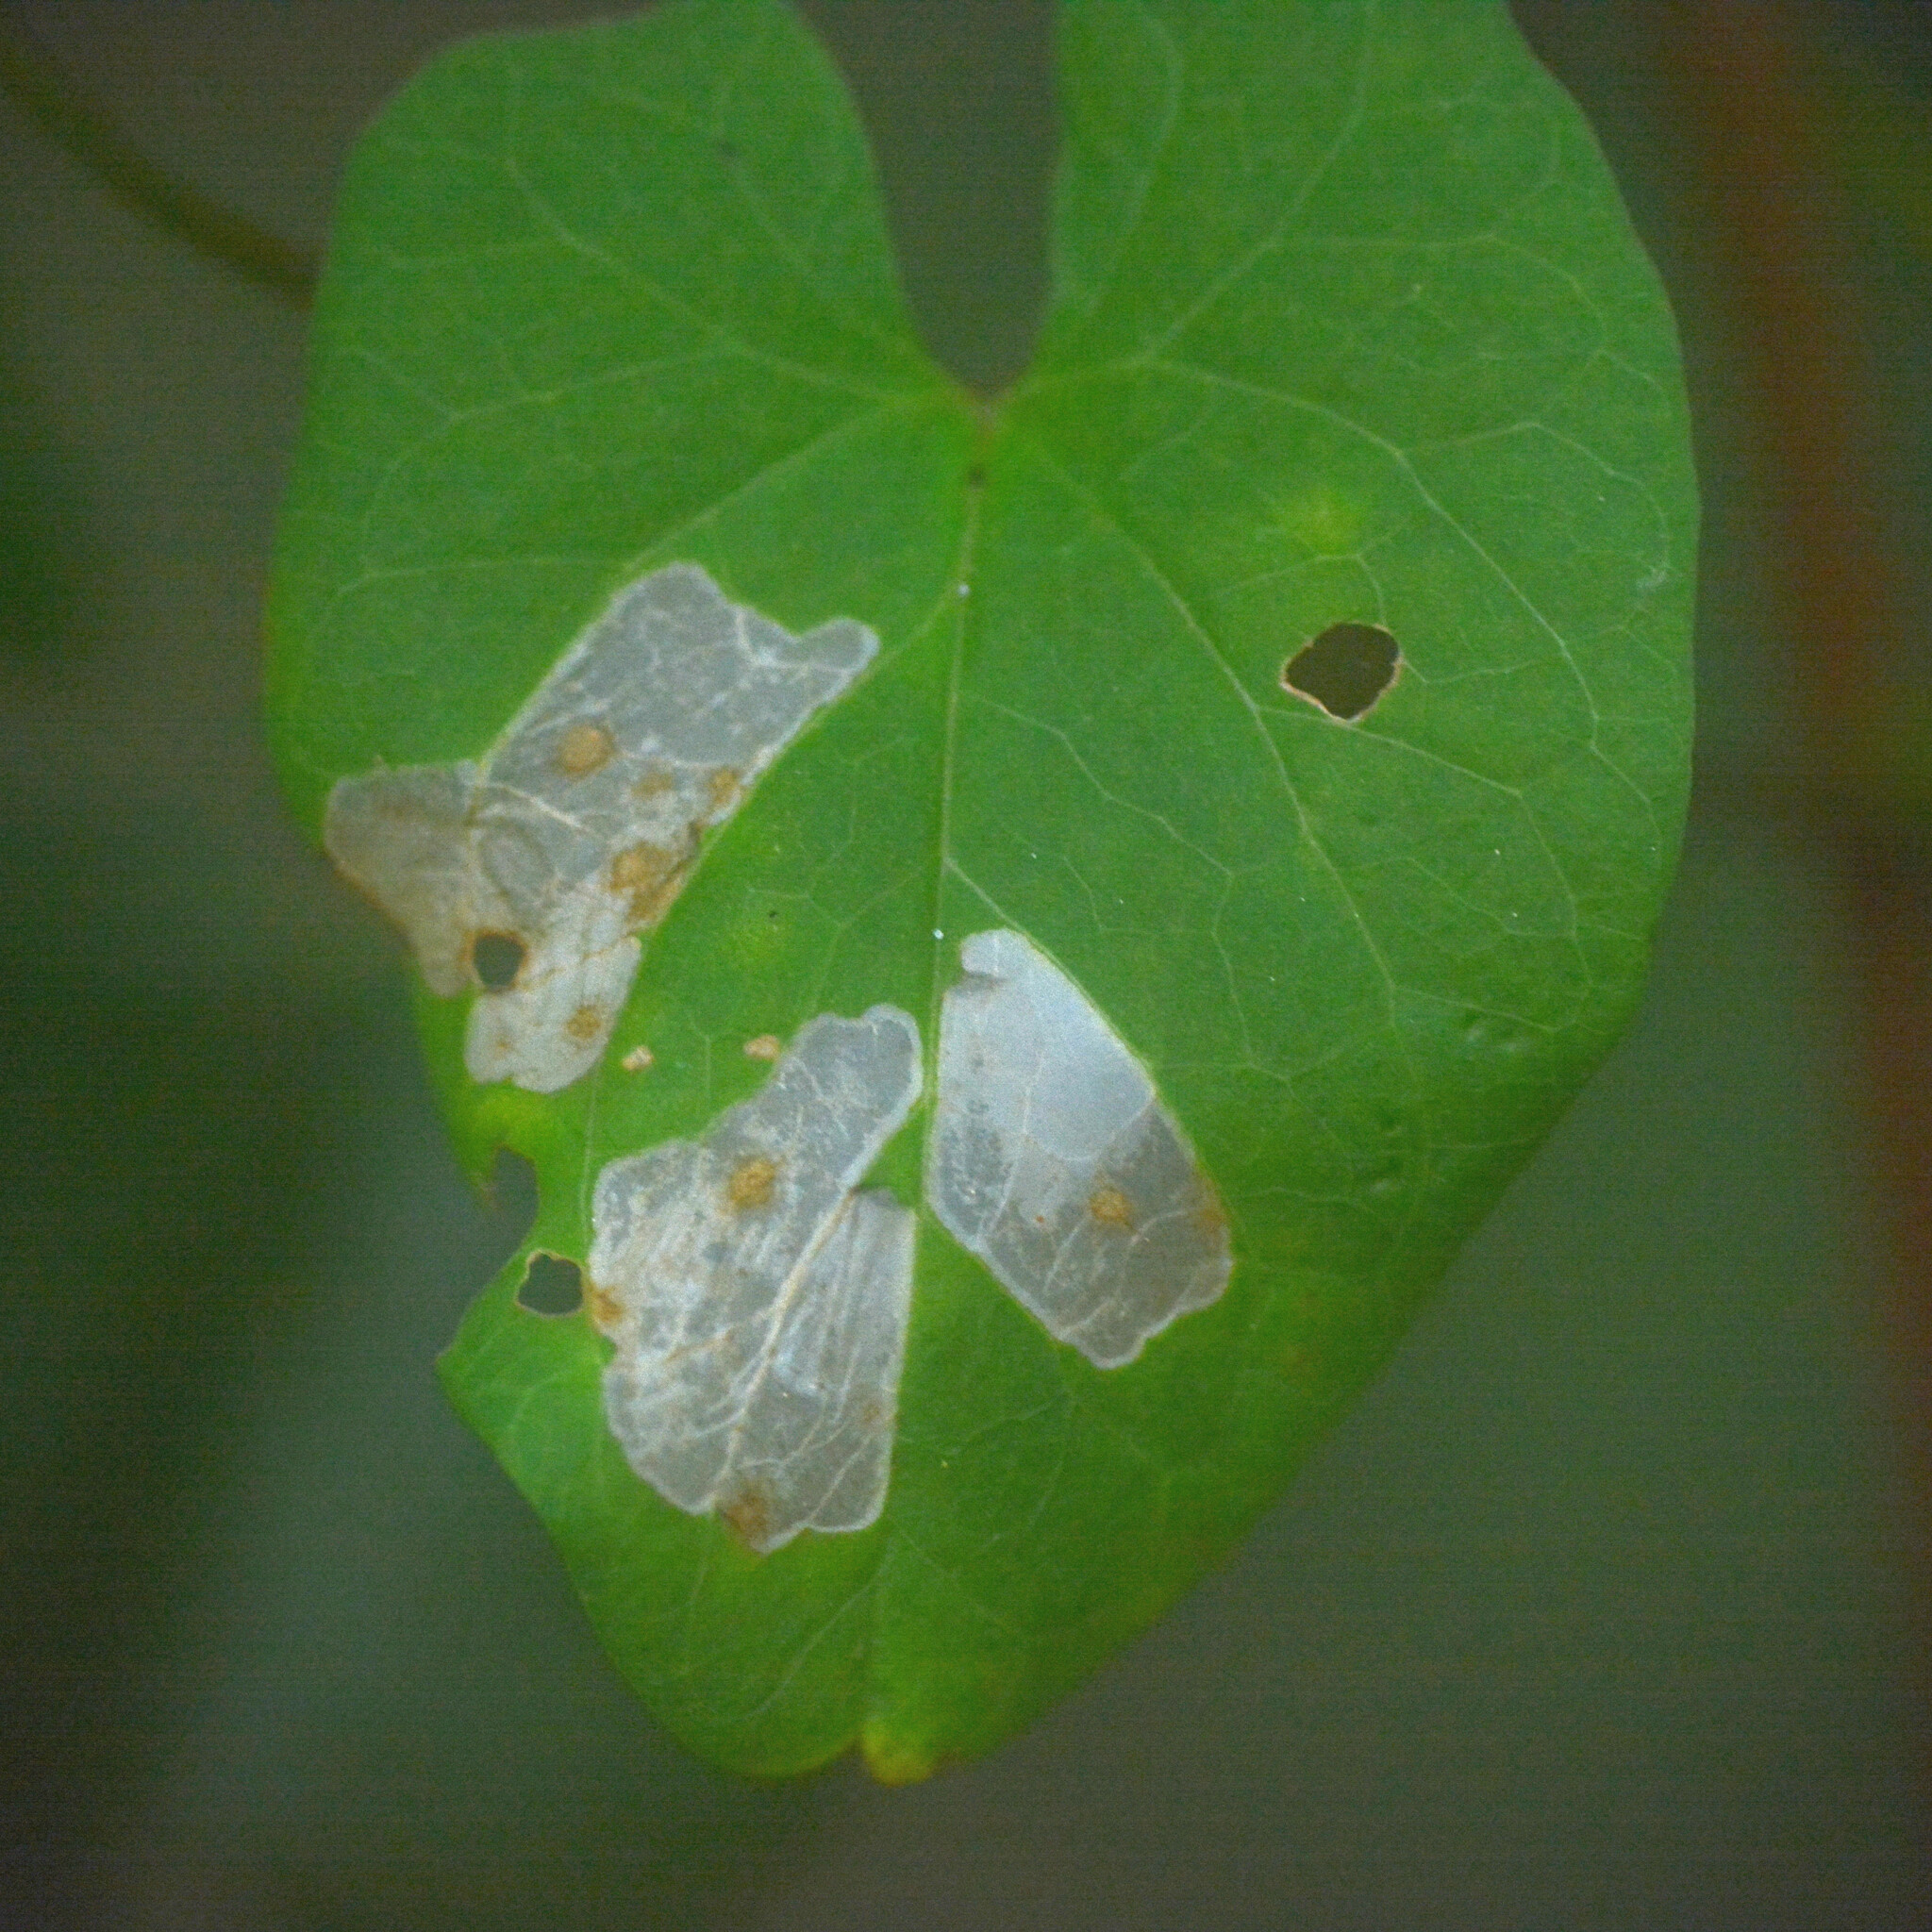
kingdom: Animalia
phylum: Arthropoda
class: Insecta
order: Lepidoptera
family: Bedelliidae
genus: Bedellia
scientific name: Bedellia somnulentella
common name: Morning-glory leafminer moth
